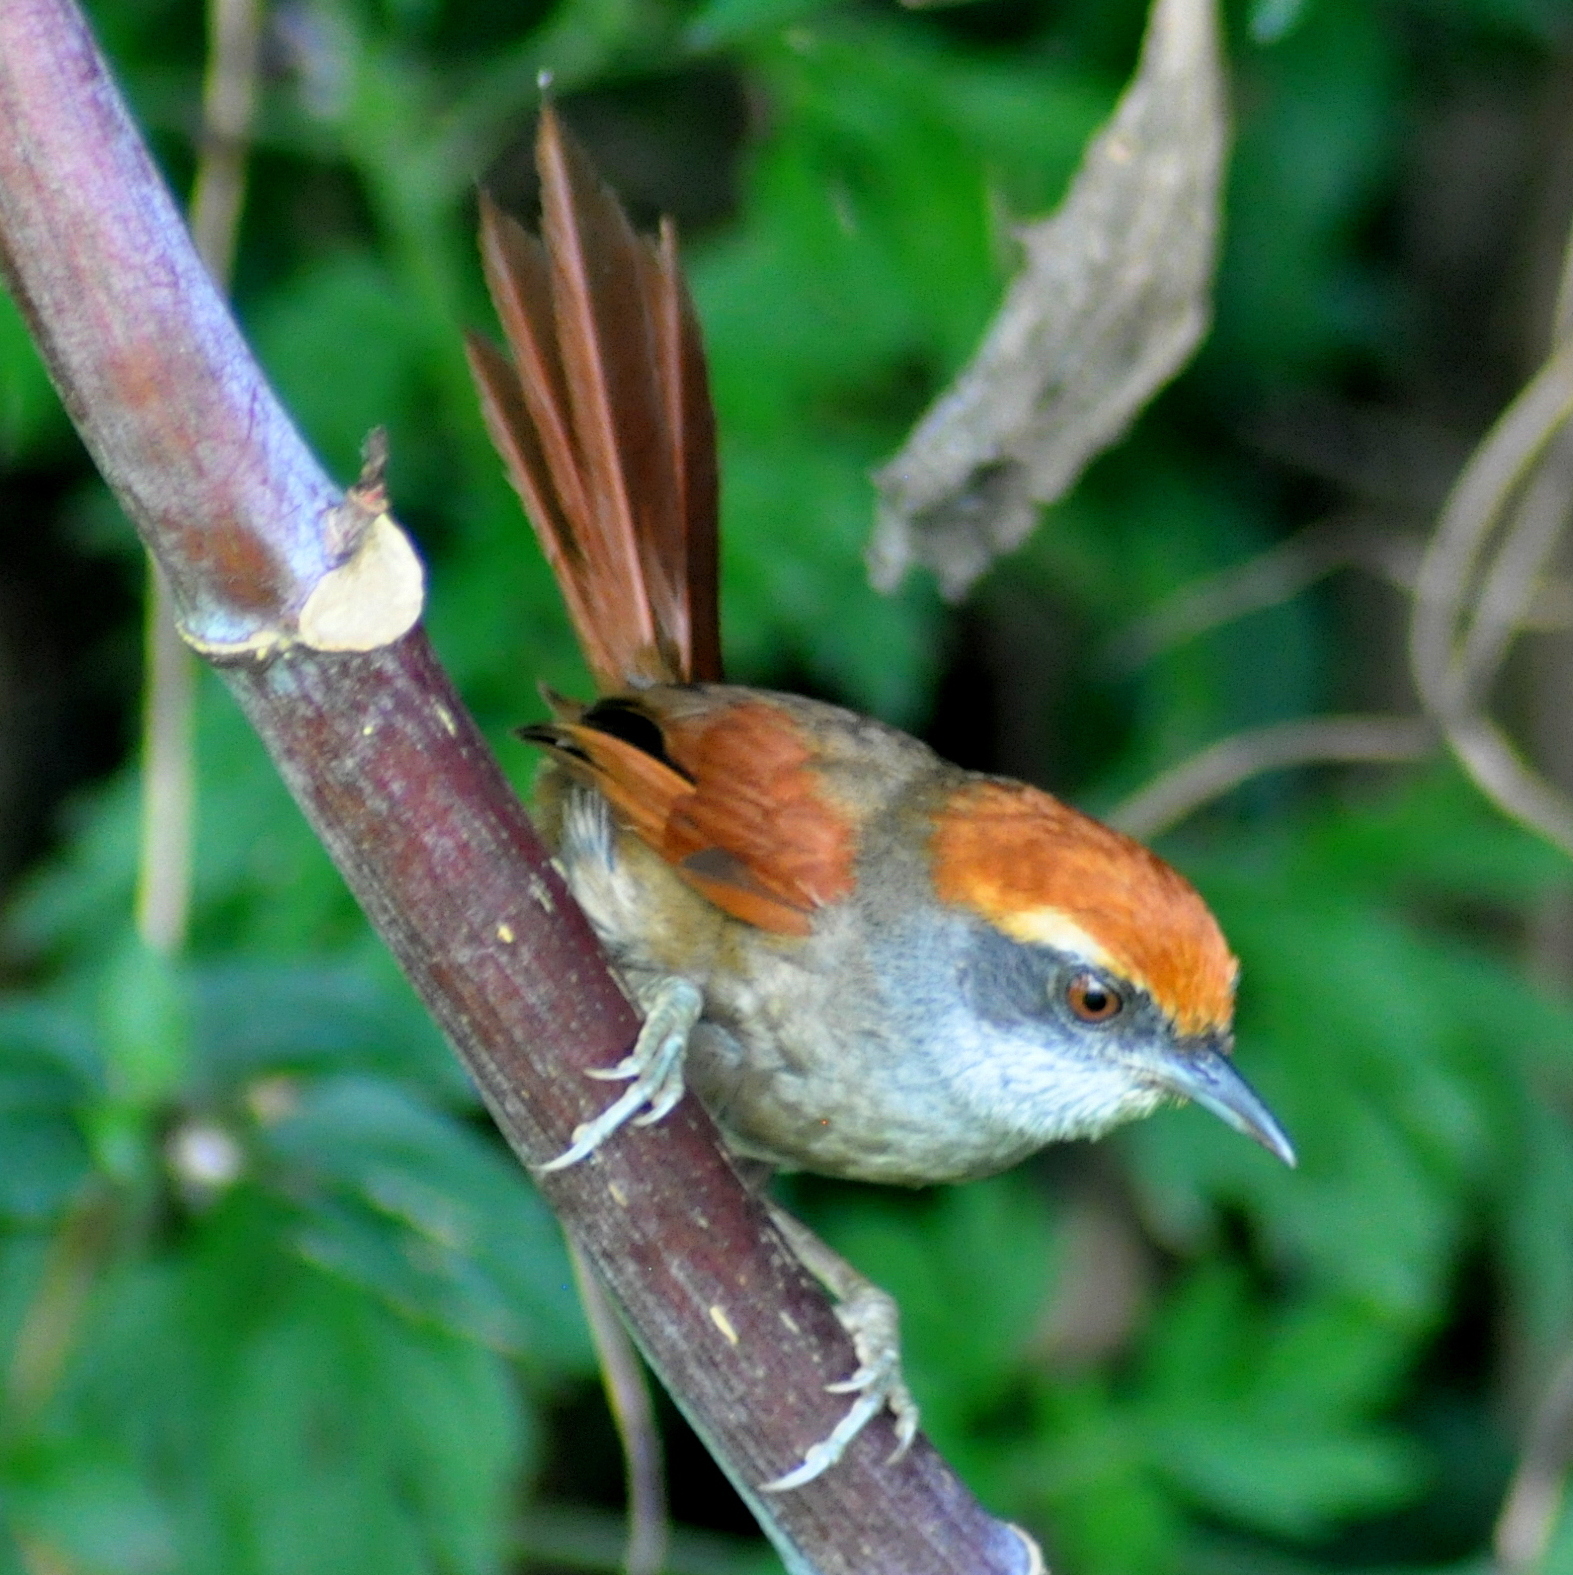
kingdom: Animalia
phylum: Chordata
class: Aves
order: Passeriformes
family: Furnariidae
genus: Synallaxis
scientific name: Synallaxis ruficapilla
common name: Rufous-capped spinetail
